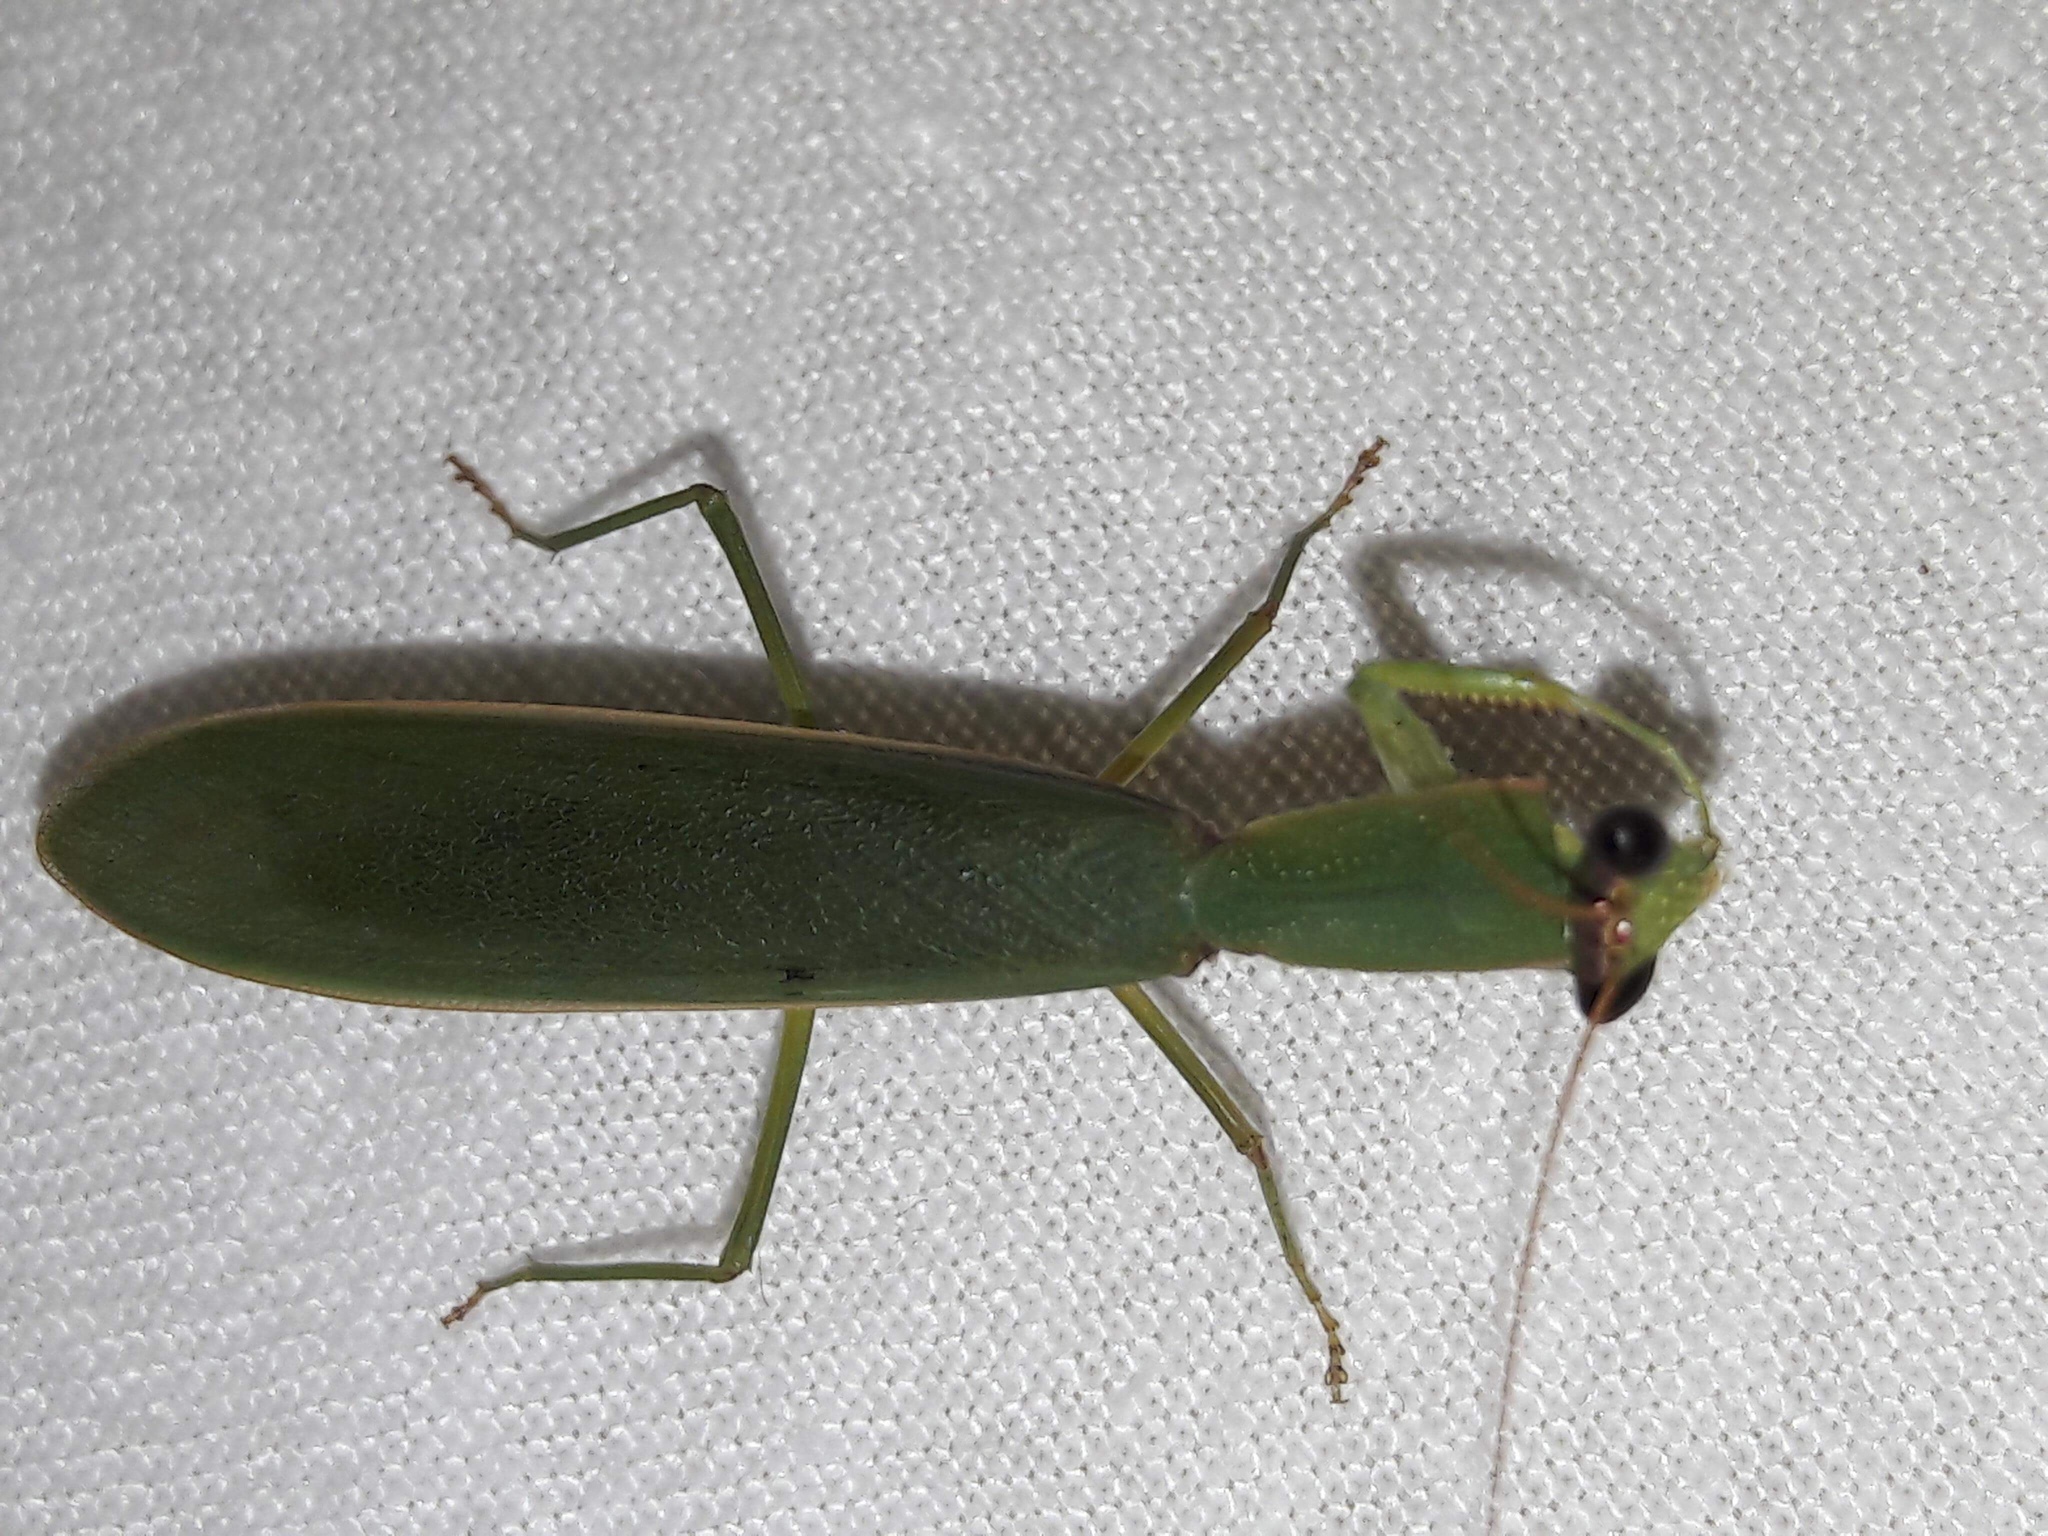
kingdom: Animalia
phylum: Arthropoda
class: Insecta
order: Mantodea
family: Mantidae
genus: Orthodera
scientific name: Orthodera novaezealandiae
